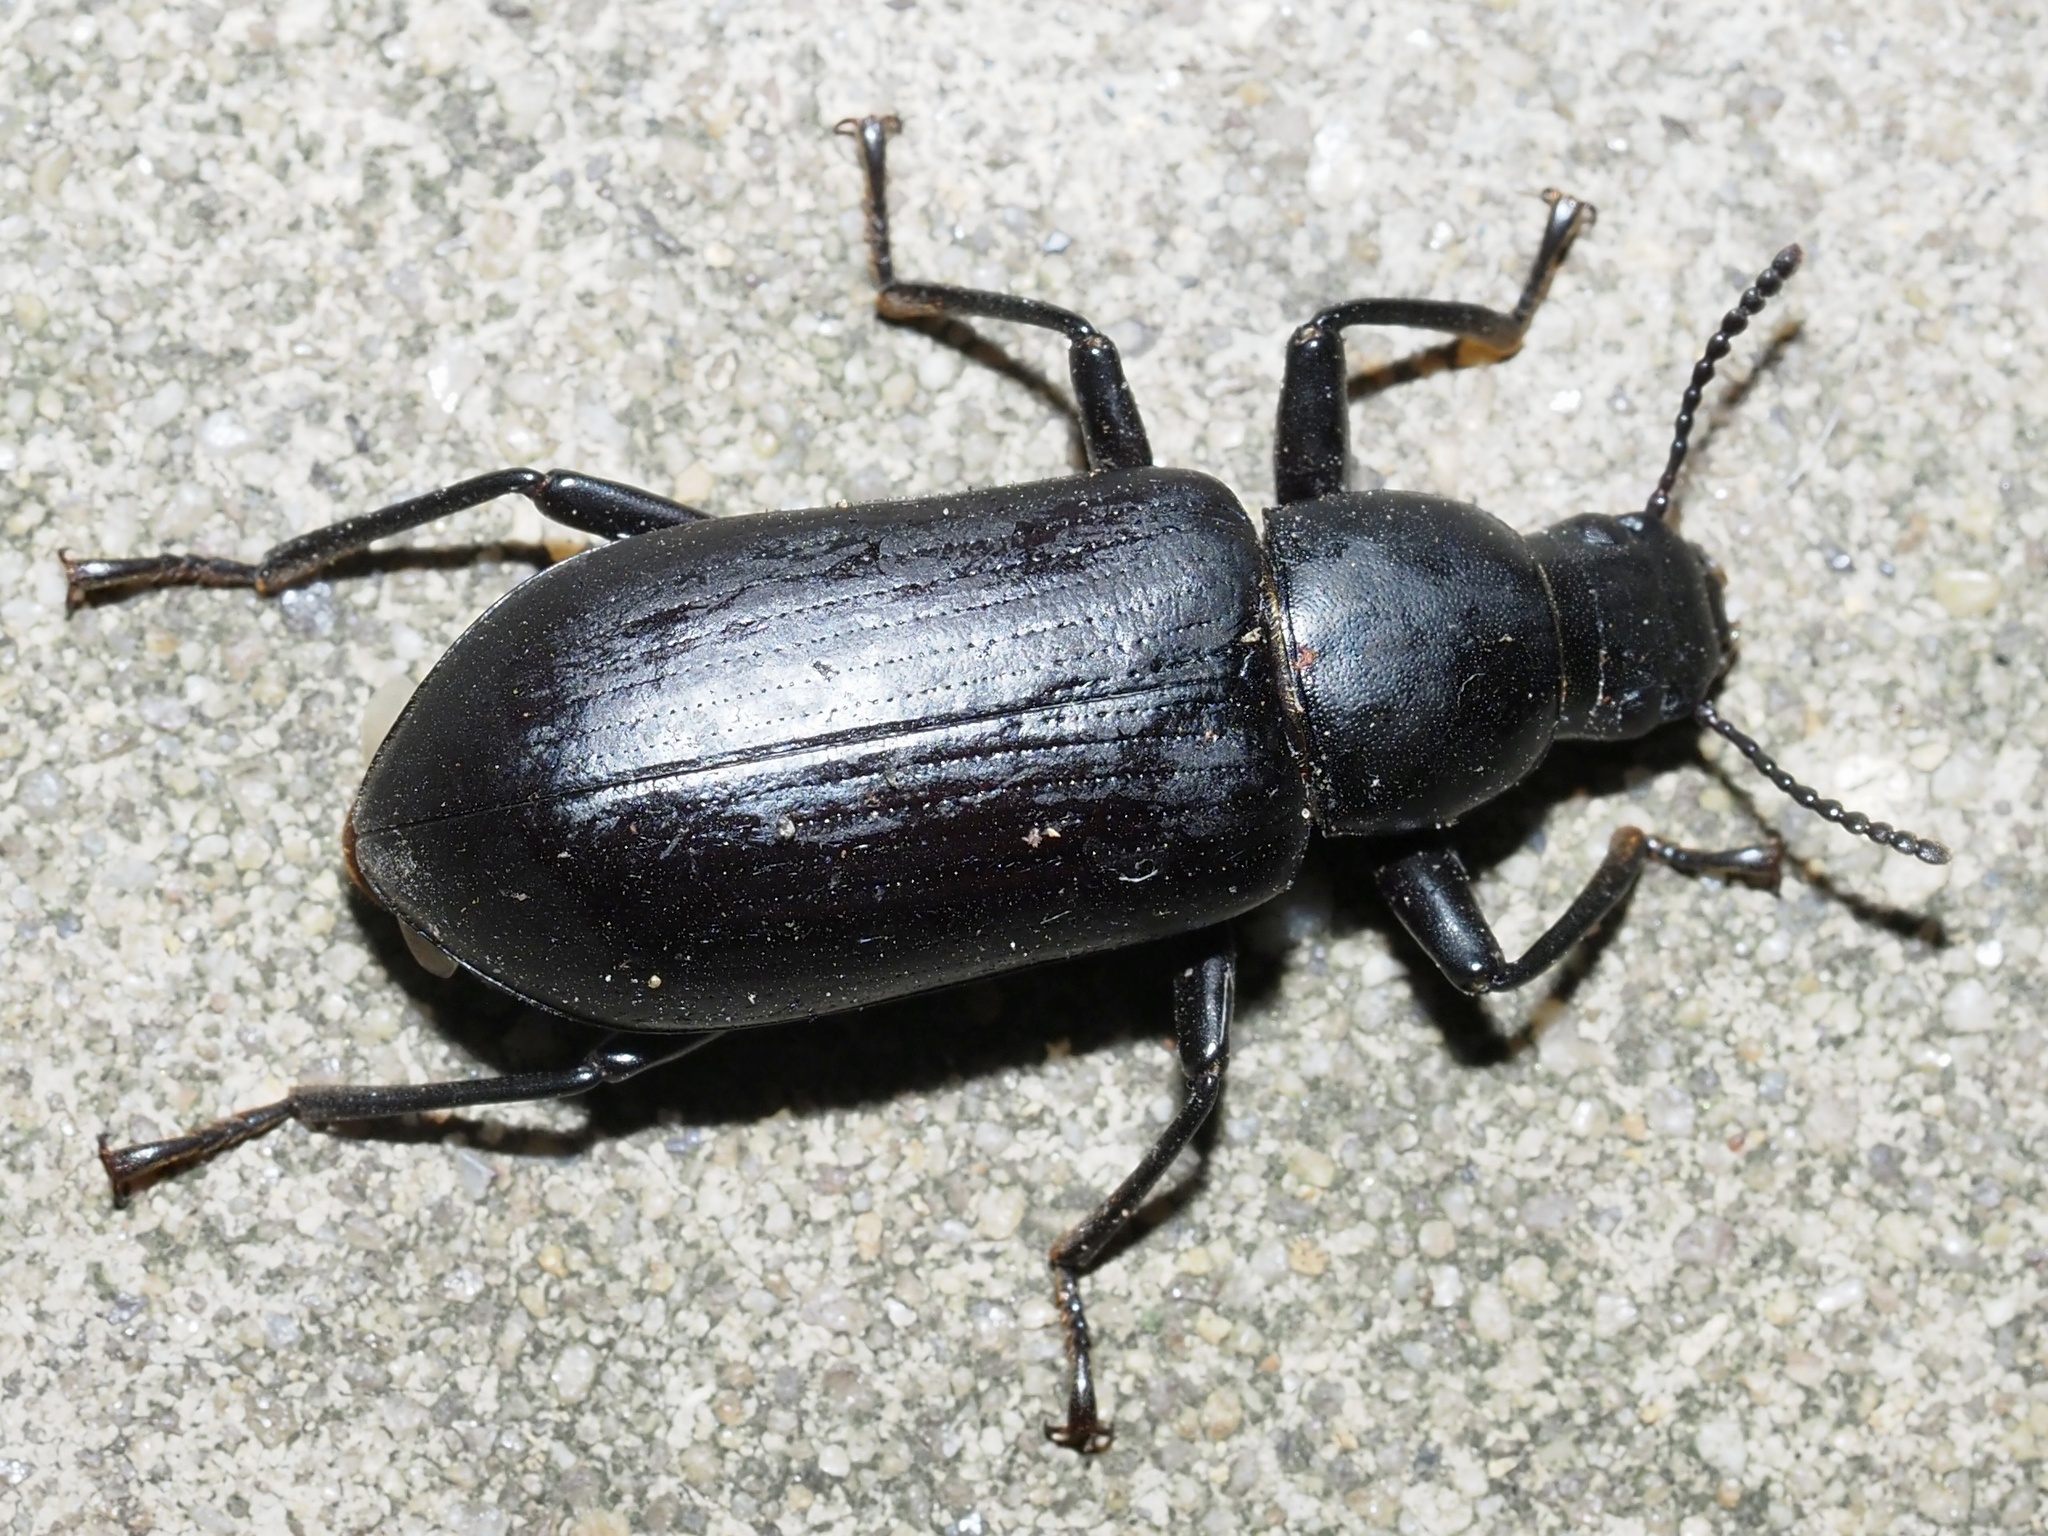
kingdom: Animalia
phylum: Arthropoda
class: Insecta
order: Coleoptera
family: Tenebrionidae
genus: Alobates
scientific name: Alobates
